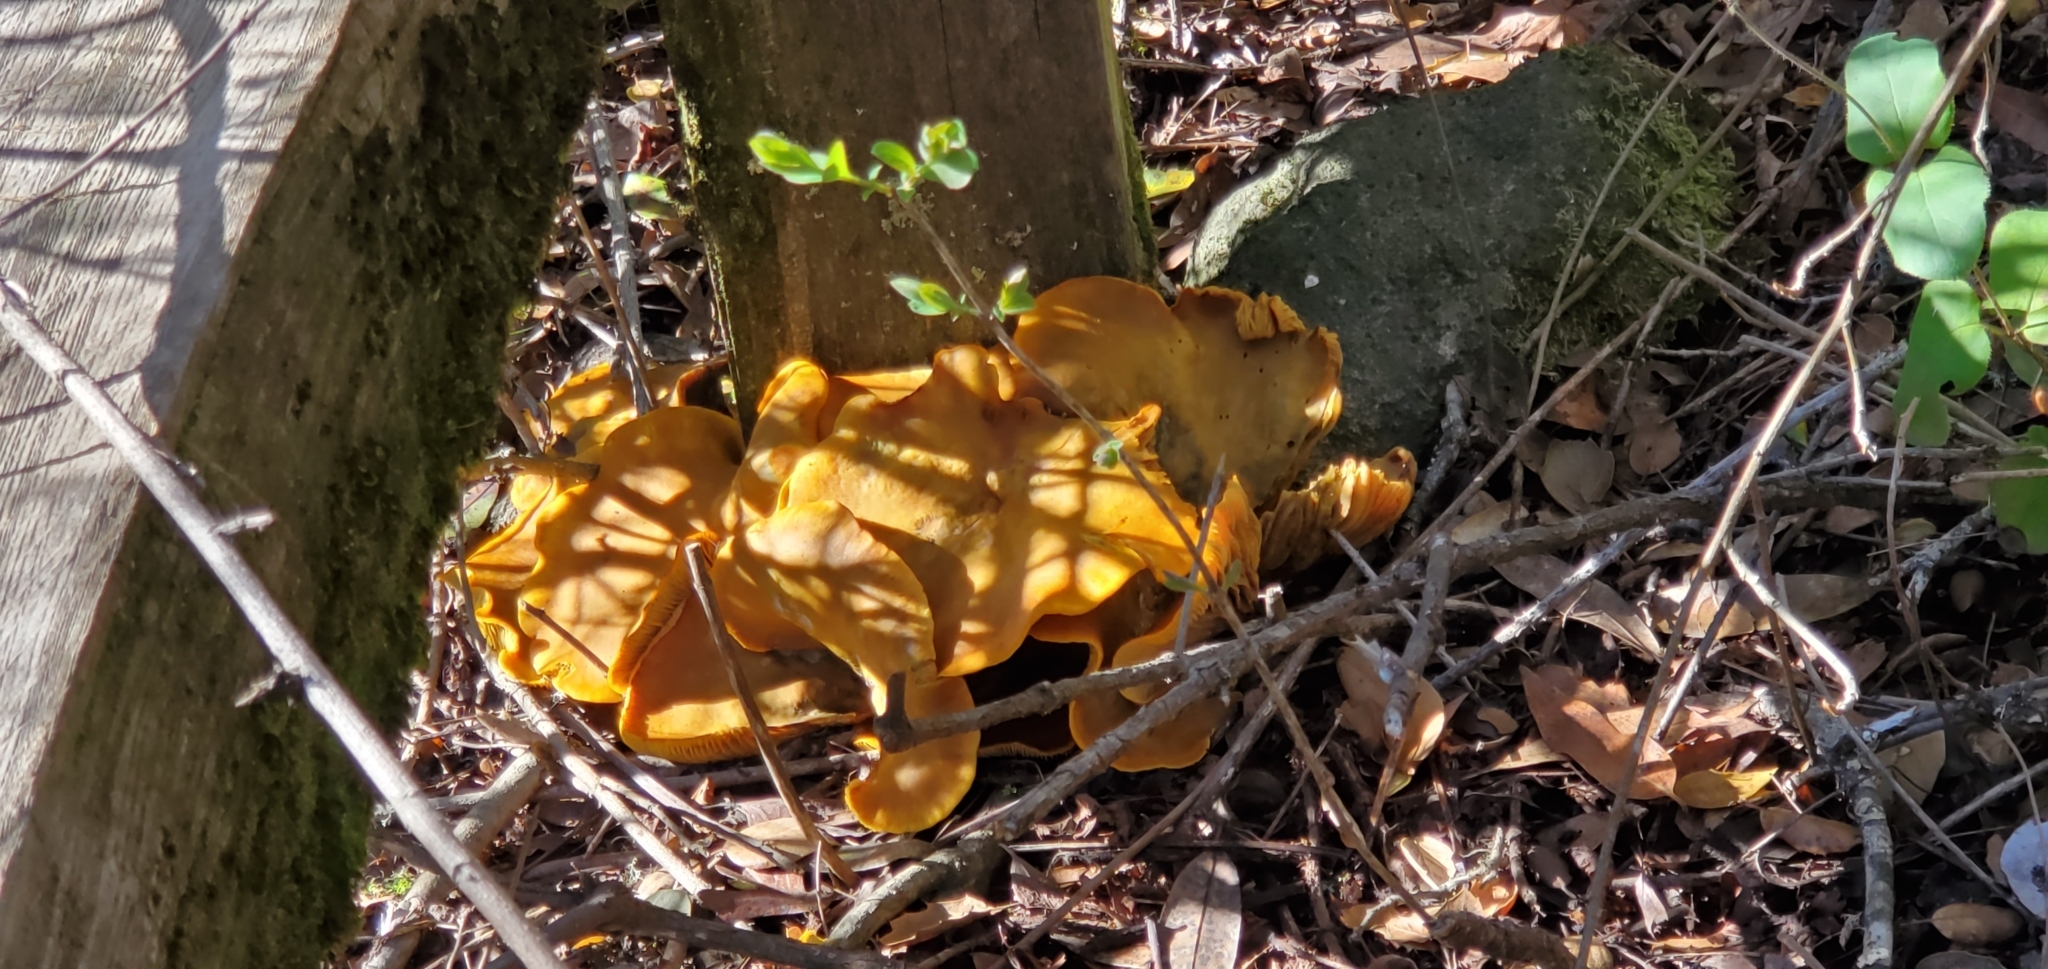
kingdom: Fungi
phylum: Basidiomycota
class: Agaricomycetes
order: Agaricales
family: Omphalotaceae
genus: Omphalotus
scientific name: Omphalotus olivascens
